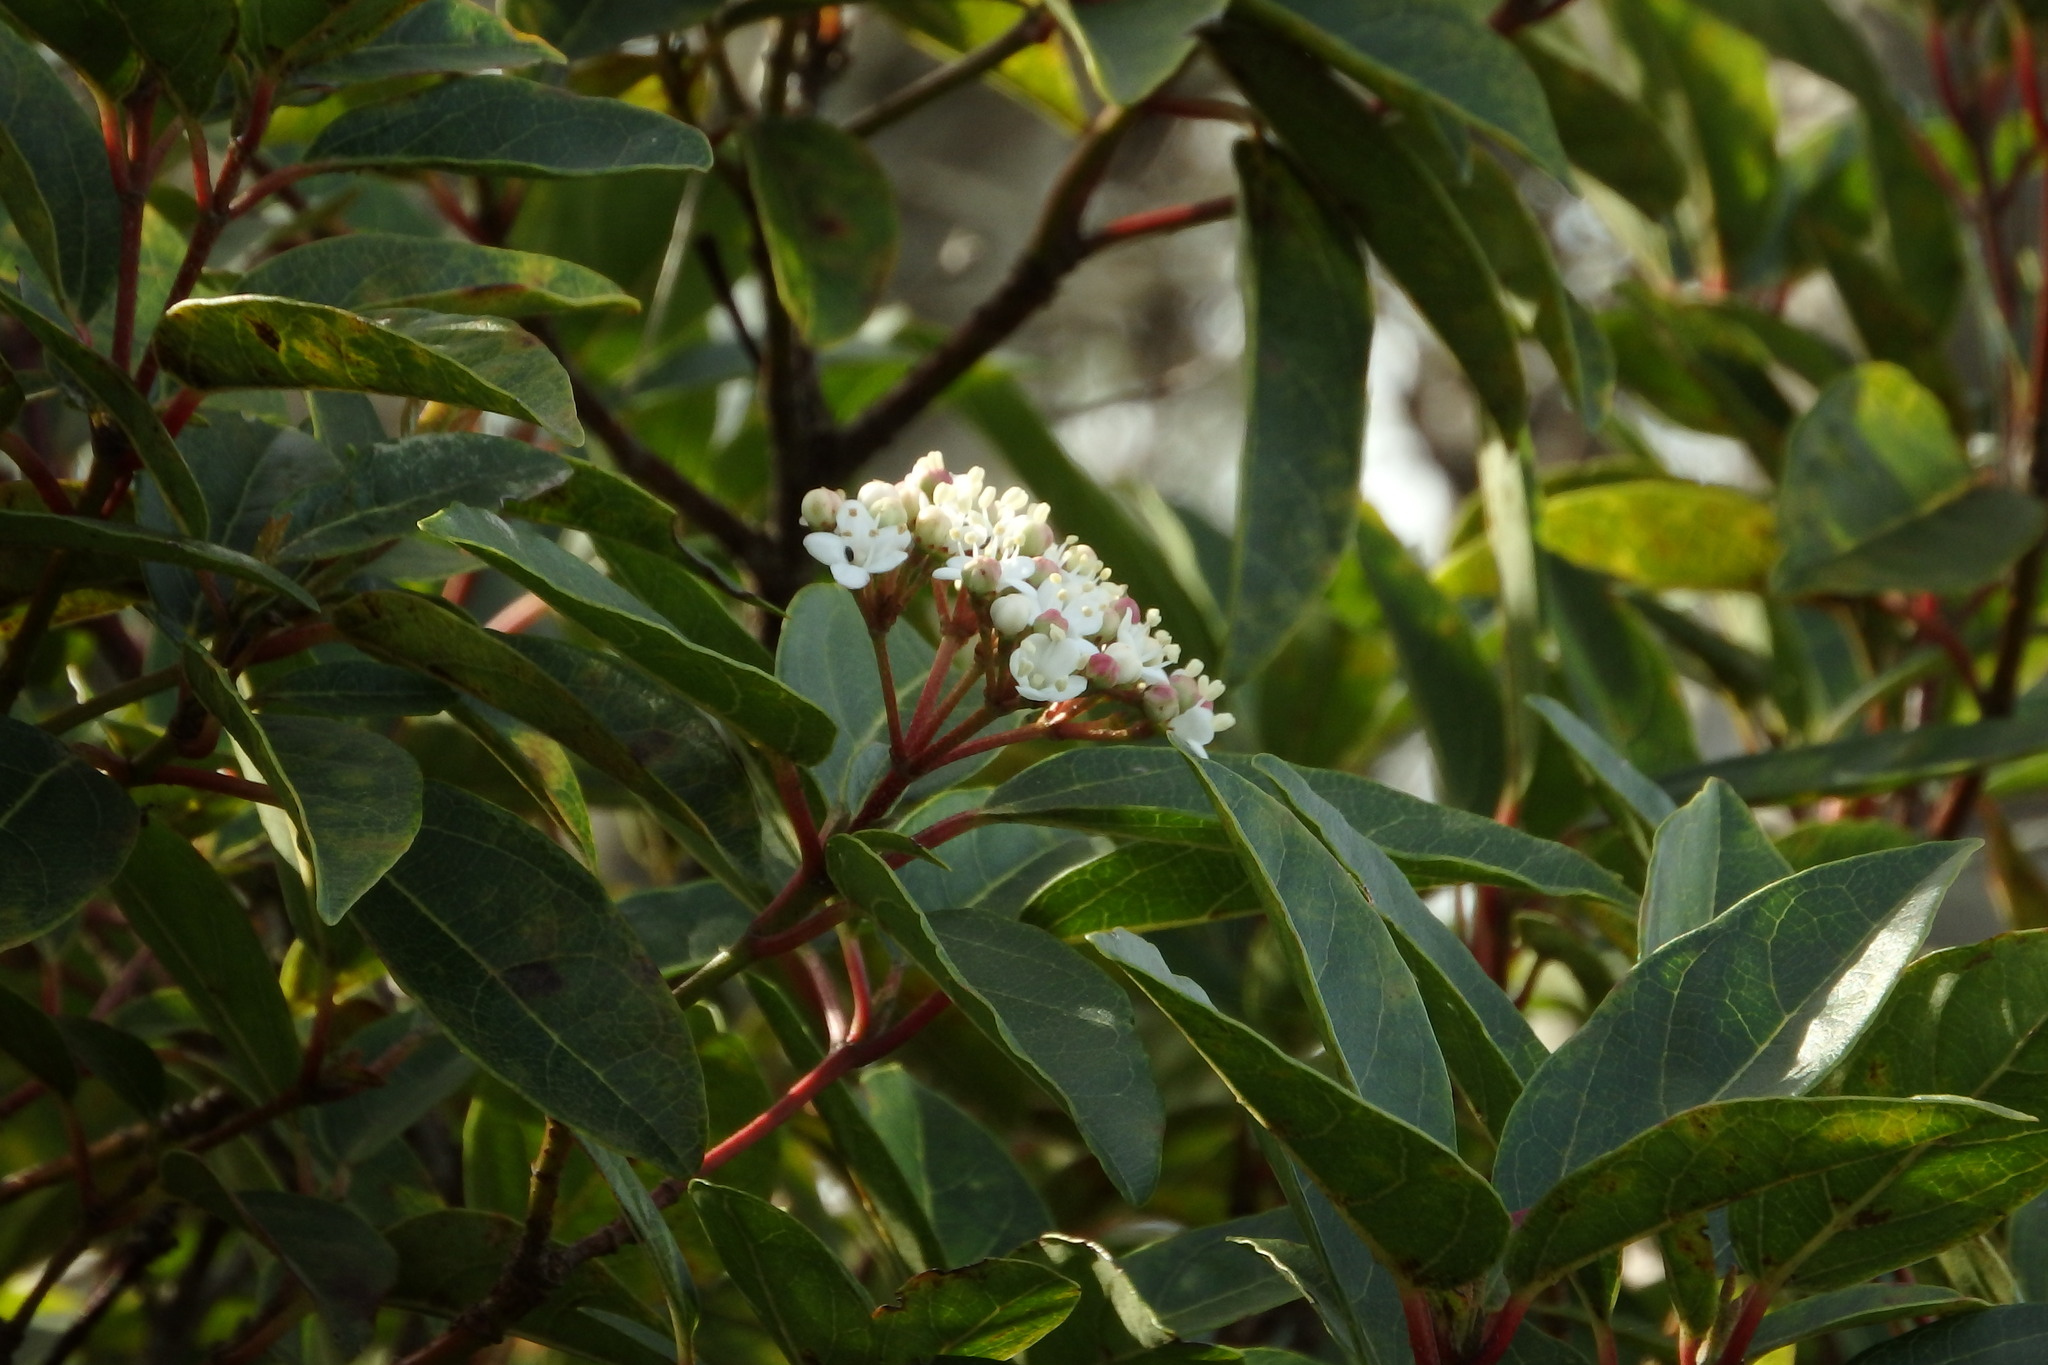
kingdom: Plantae
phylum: Tracheophyta
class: Magnoliopsida
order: Dipsacales
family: Viburnaceae
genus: Viburnum
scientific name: Viburnum tinus
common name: Laurustinus
